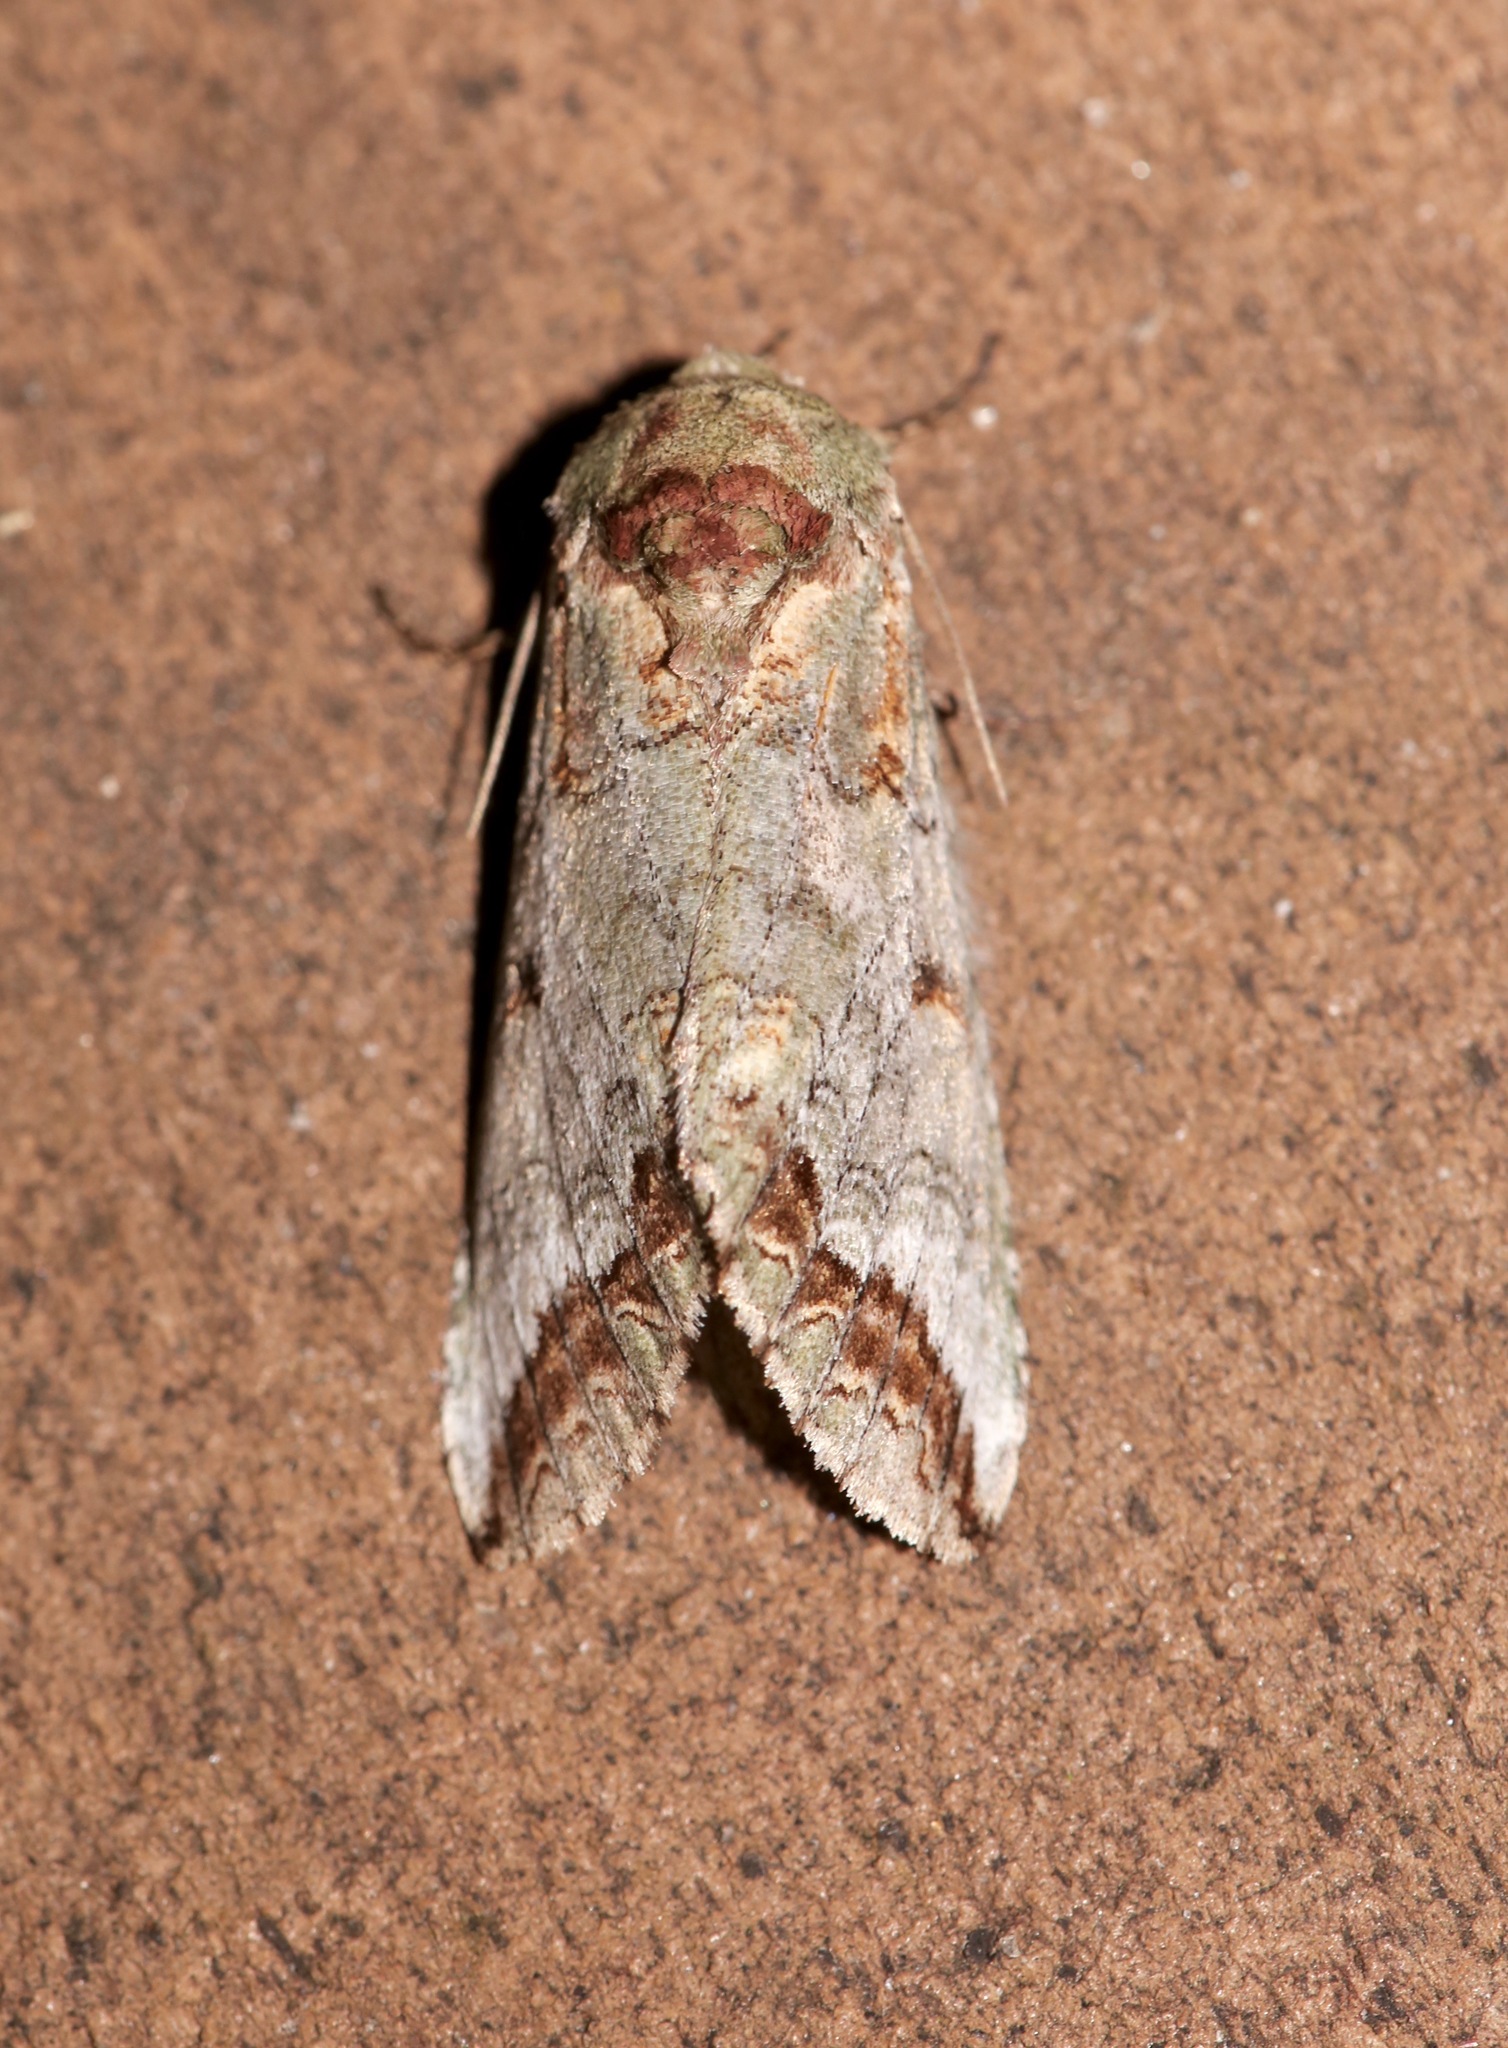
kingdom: Animalia
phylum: Arthropoda
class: Insecta
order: Lepidoptera
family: Notodontidae
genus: Heterocampa
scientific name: Heterocampa astarte
